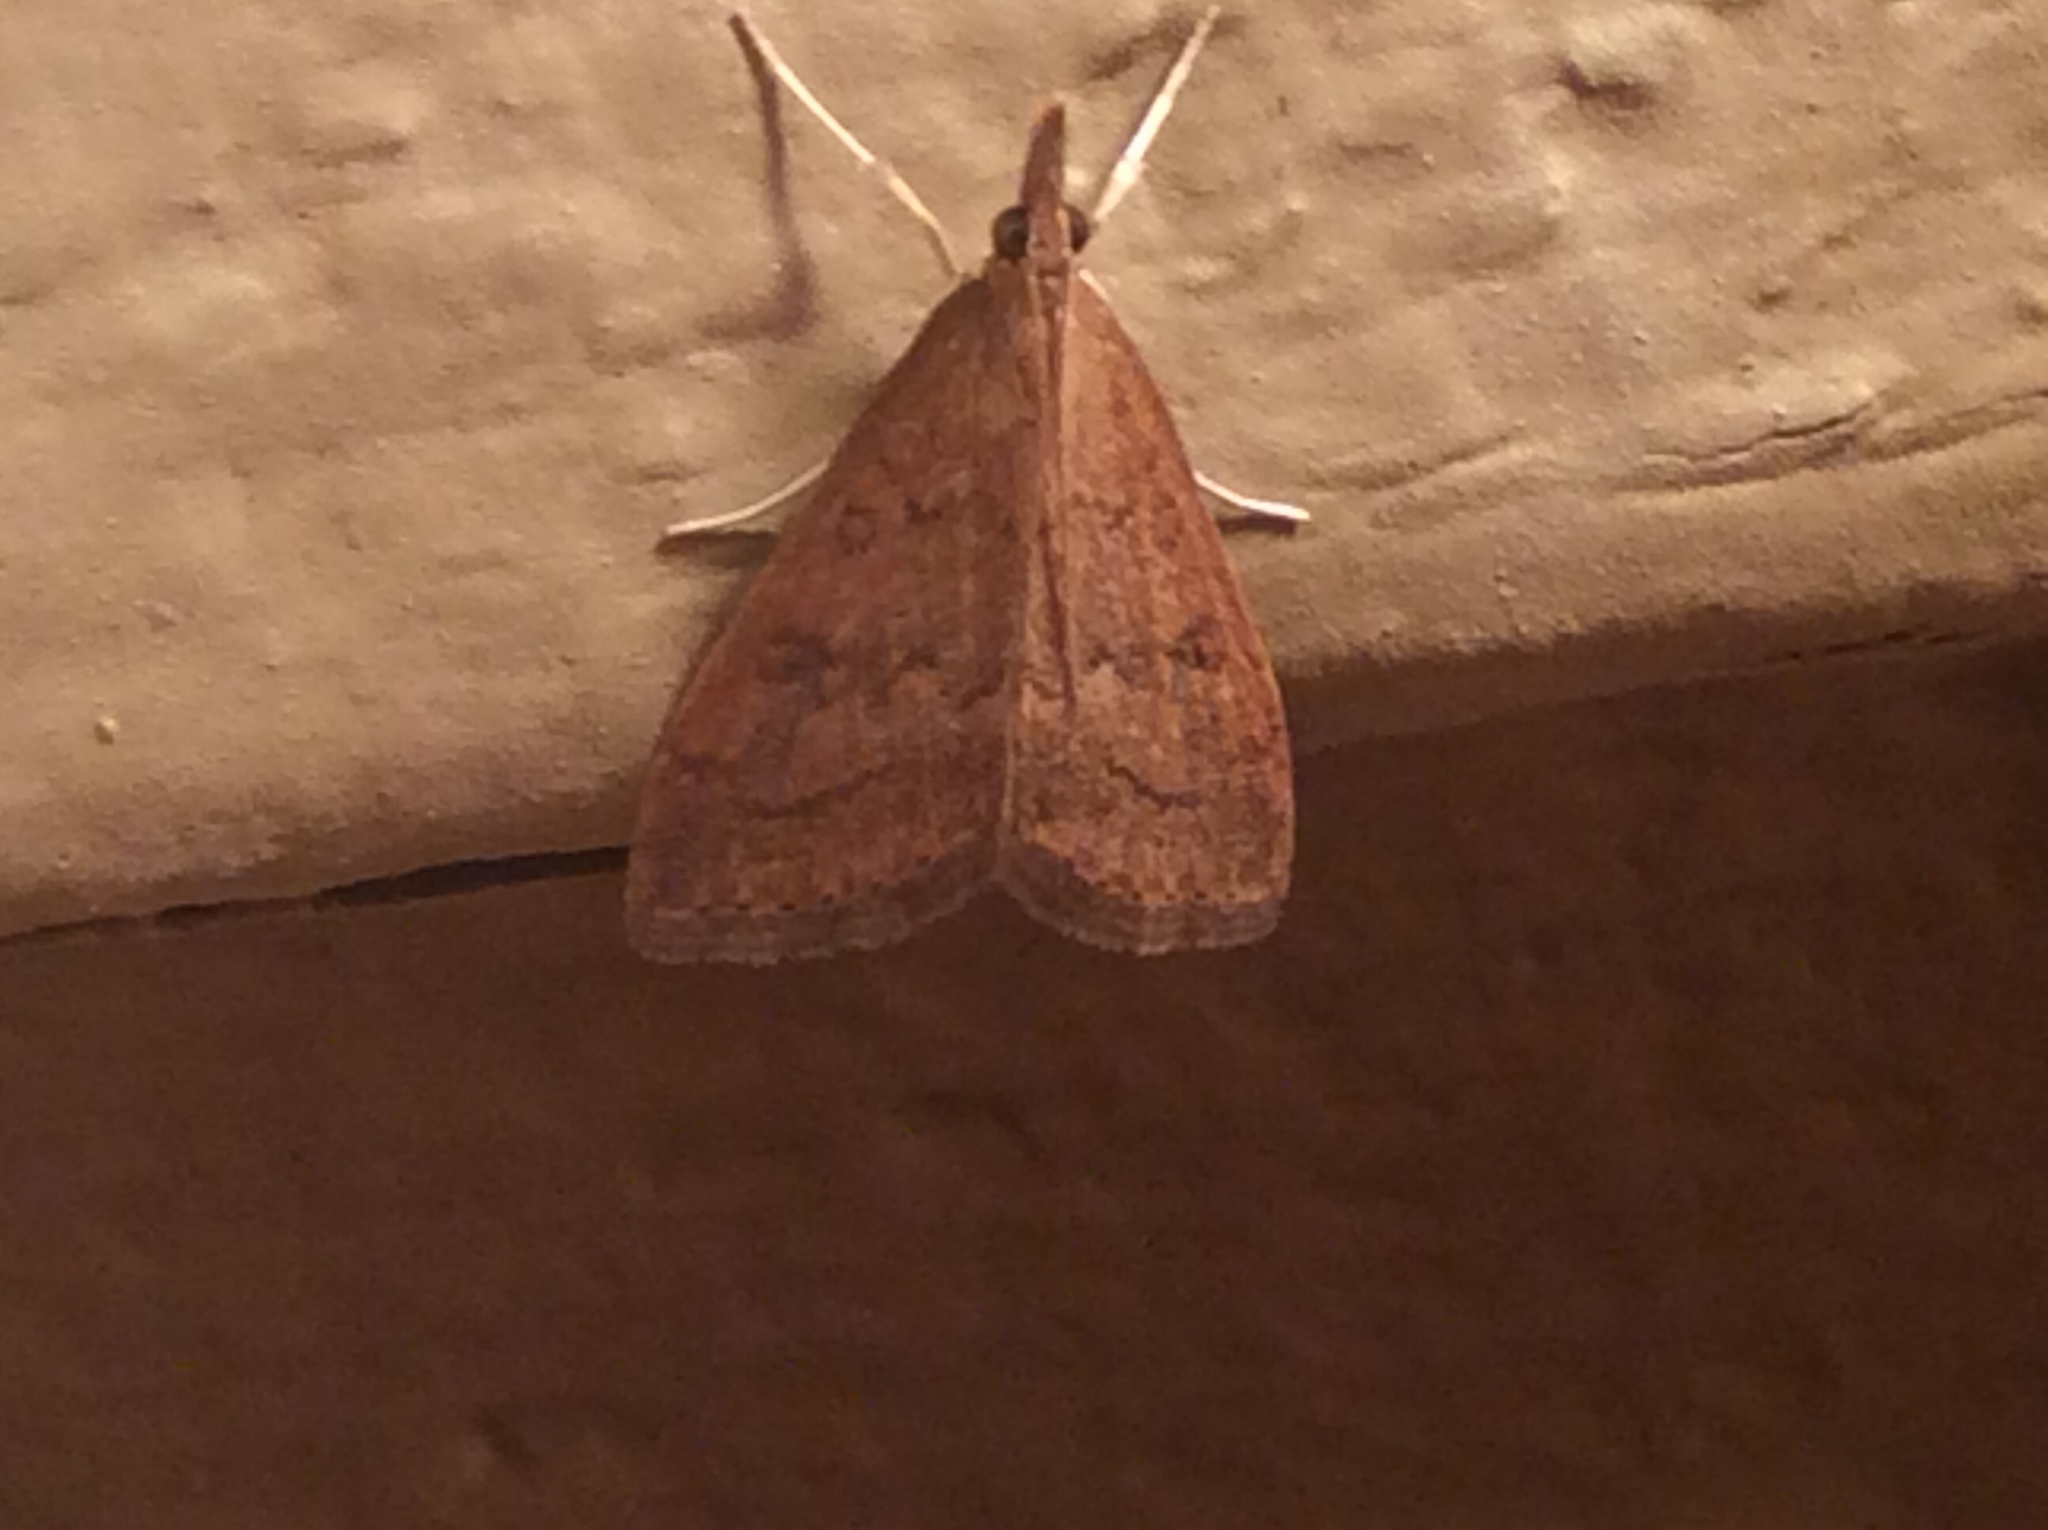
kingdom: Animalia
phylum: Arthropoda
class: Insecta
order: Lepidoptera
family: Crambidae
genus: Udea
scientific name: Udea rubigalis
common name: Celery leaftier moth
